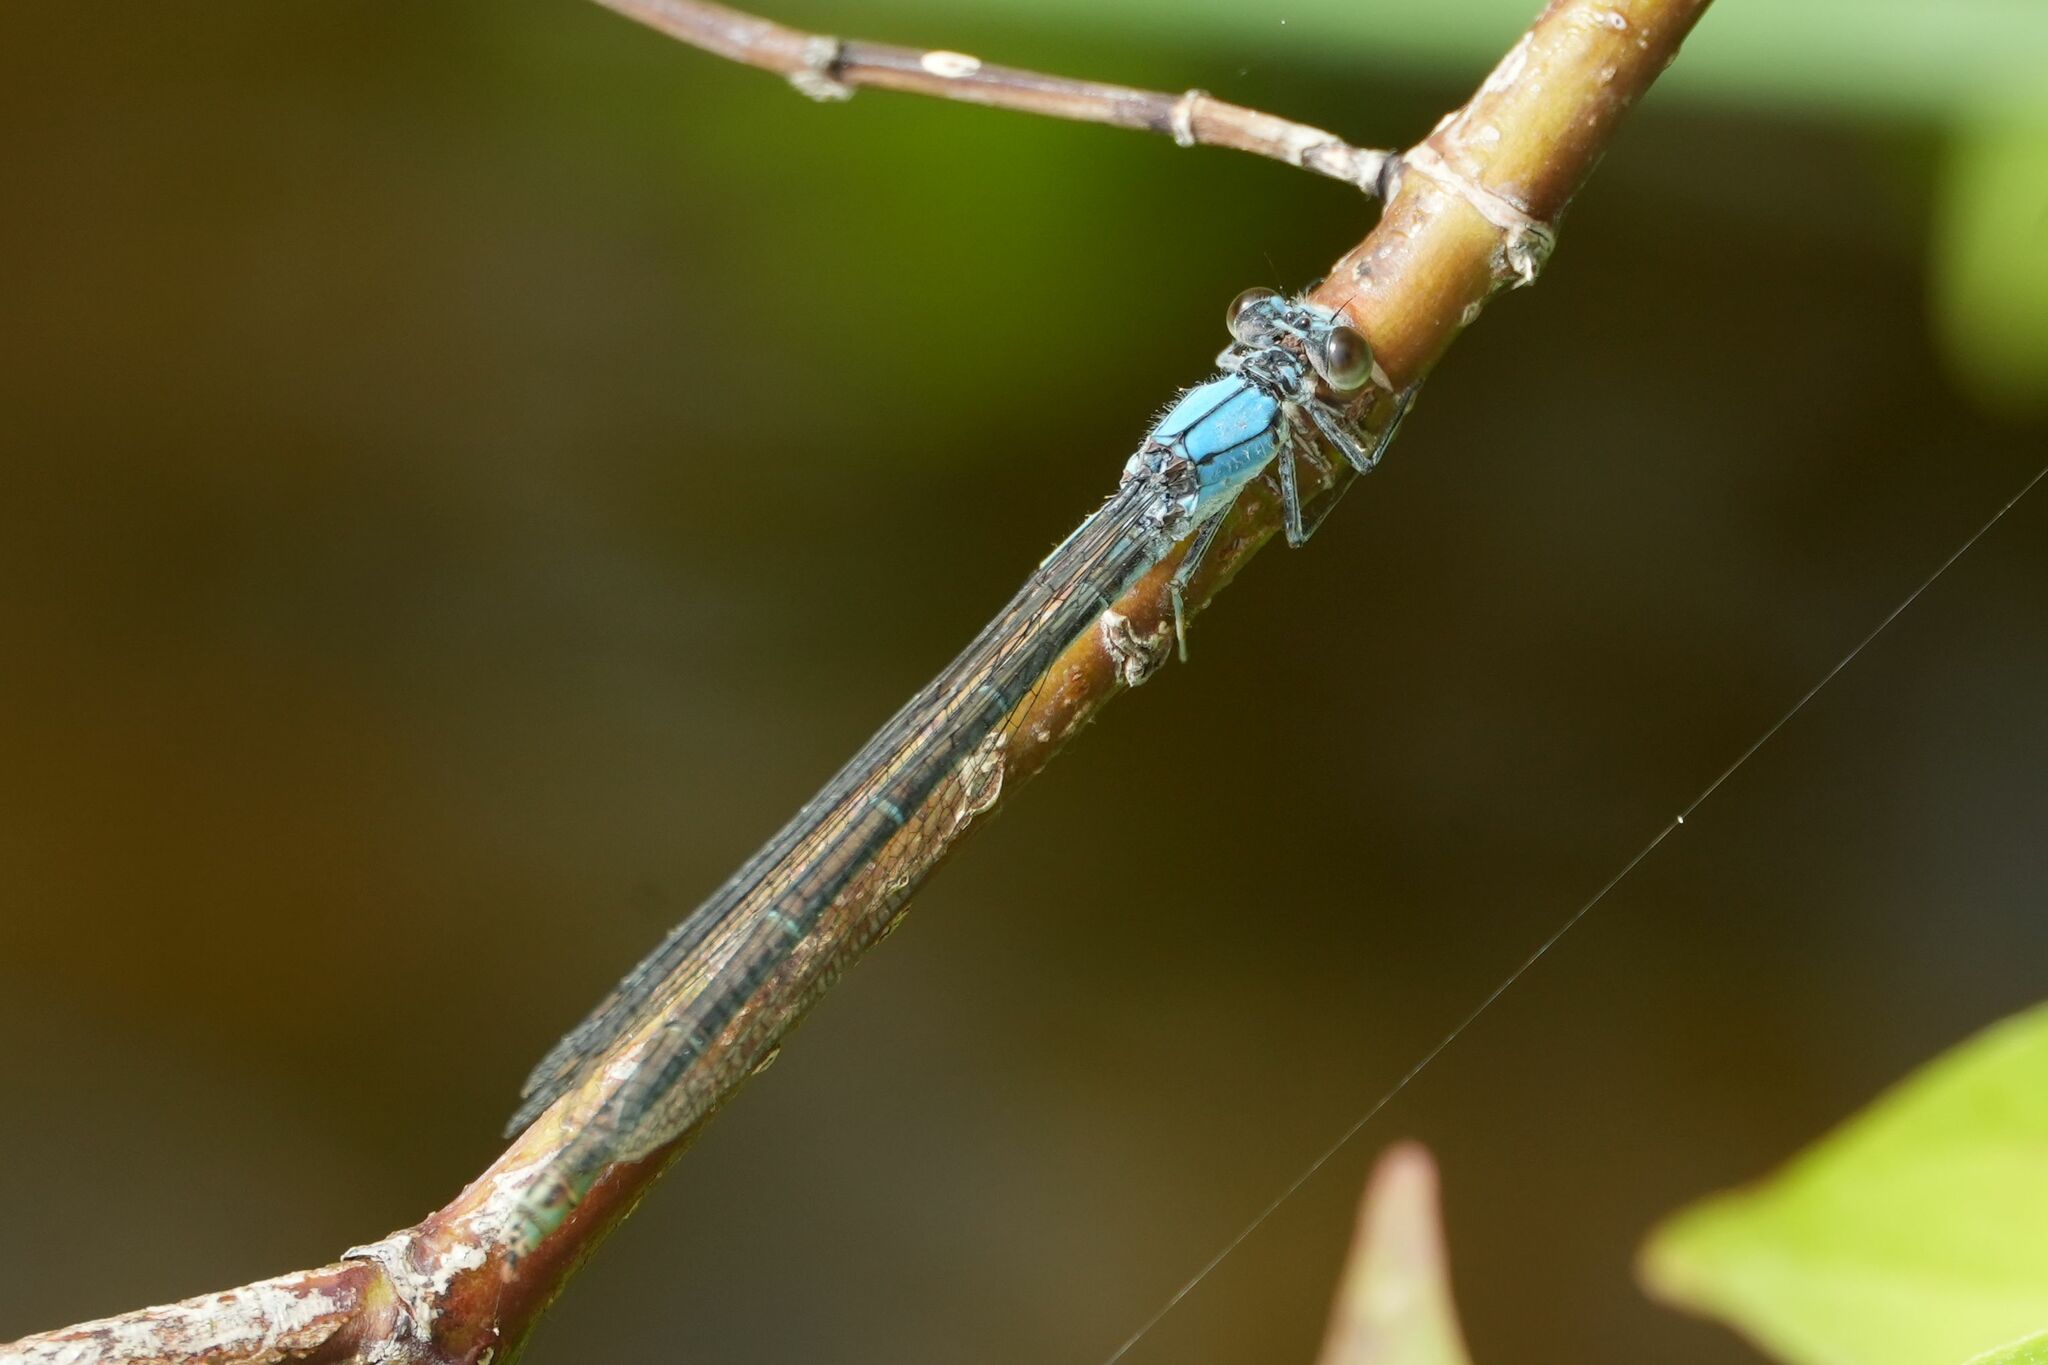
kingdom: Animalia
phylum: Arthropoda
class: Insecta
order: Odonata
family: Coenagrionidae
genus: Argia
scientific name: Argia moesta
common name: Powdered dancer
